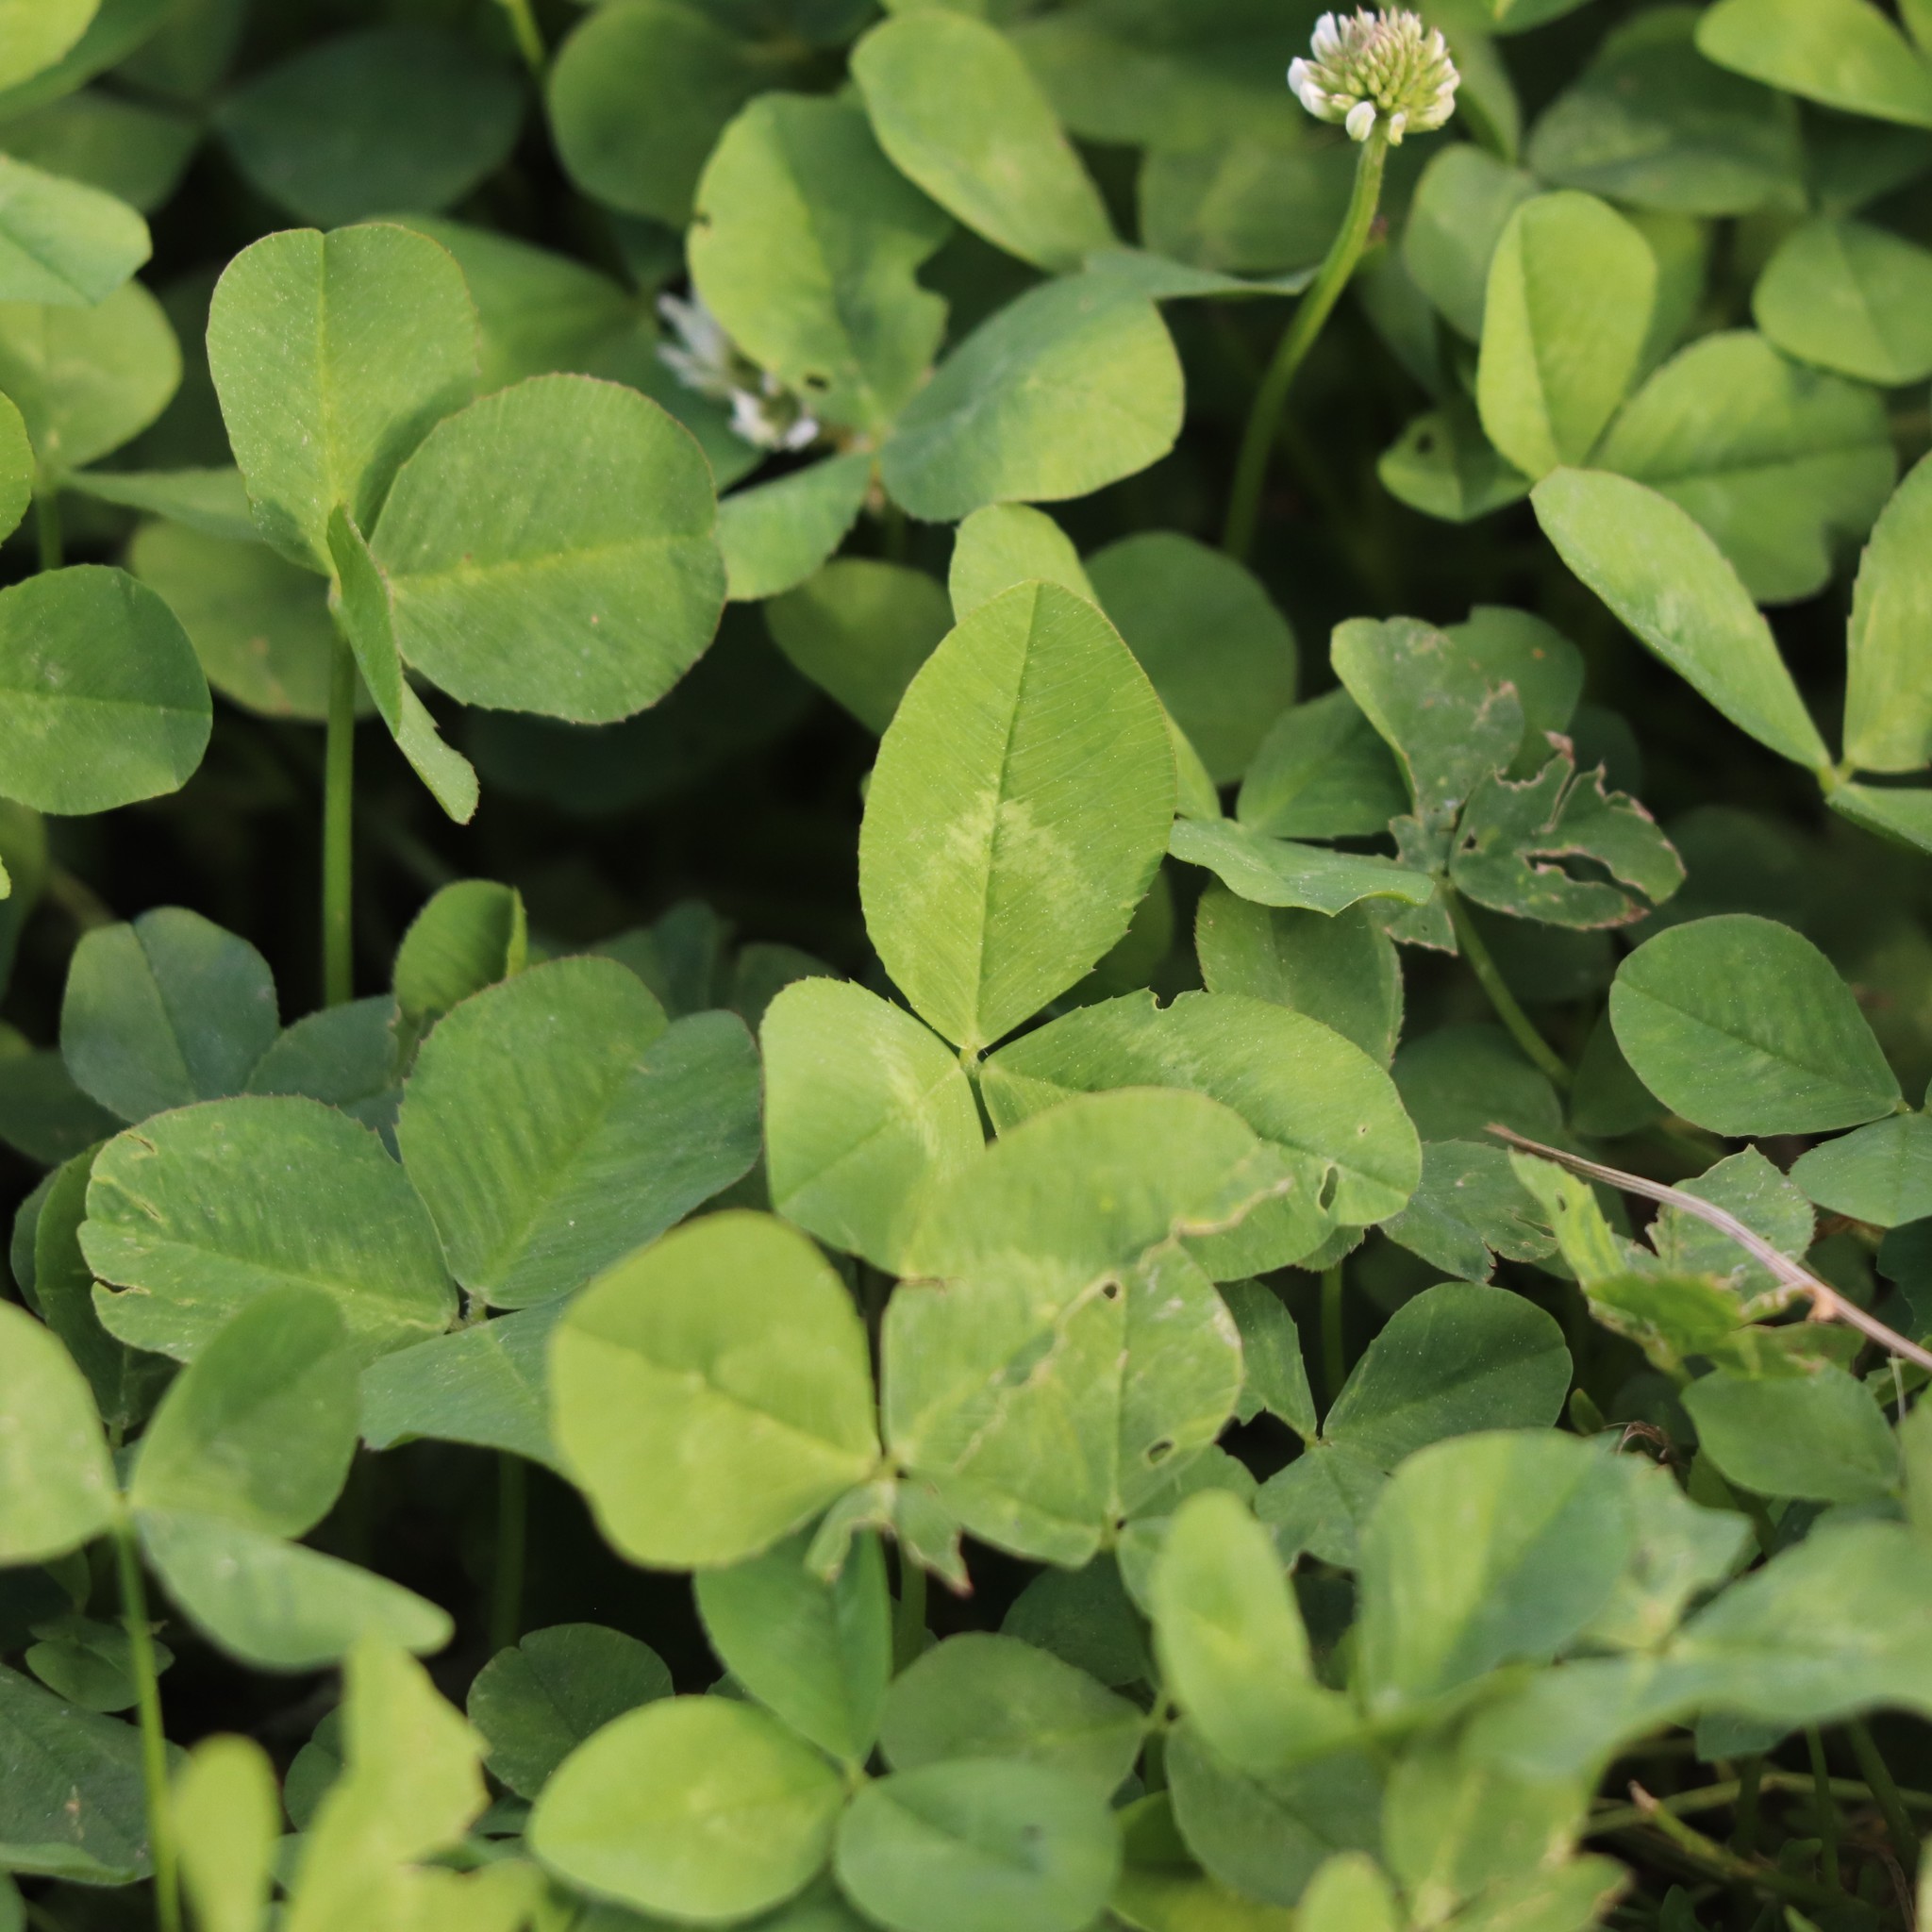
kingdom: Plantae
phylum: Tracheophyta
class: Magnoliopsida
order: Fabales
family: Fabaceae
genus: Trifolium
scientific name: Trifolium repens
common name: White clover
